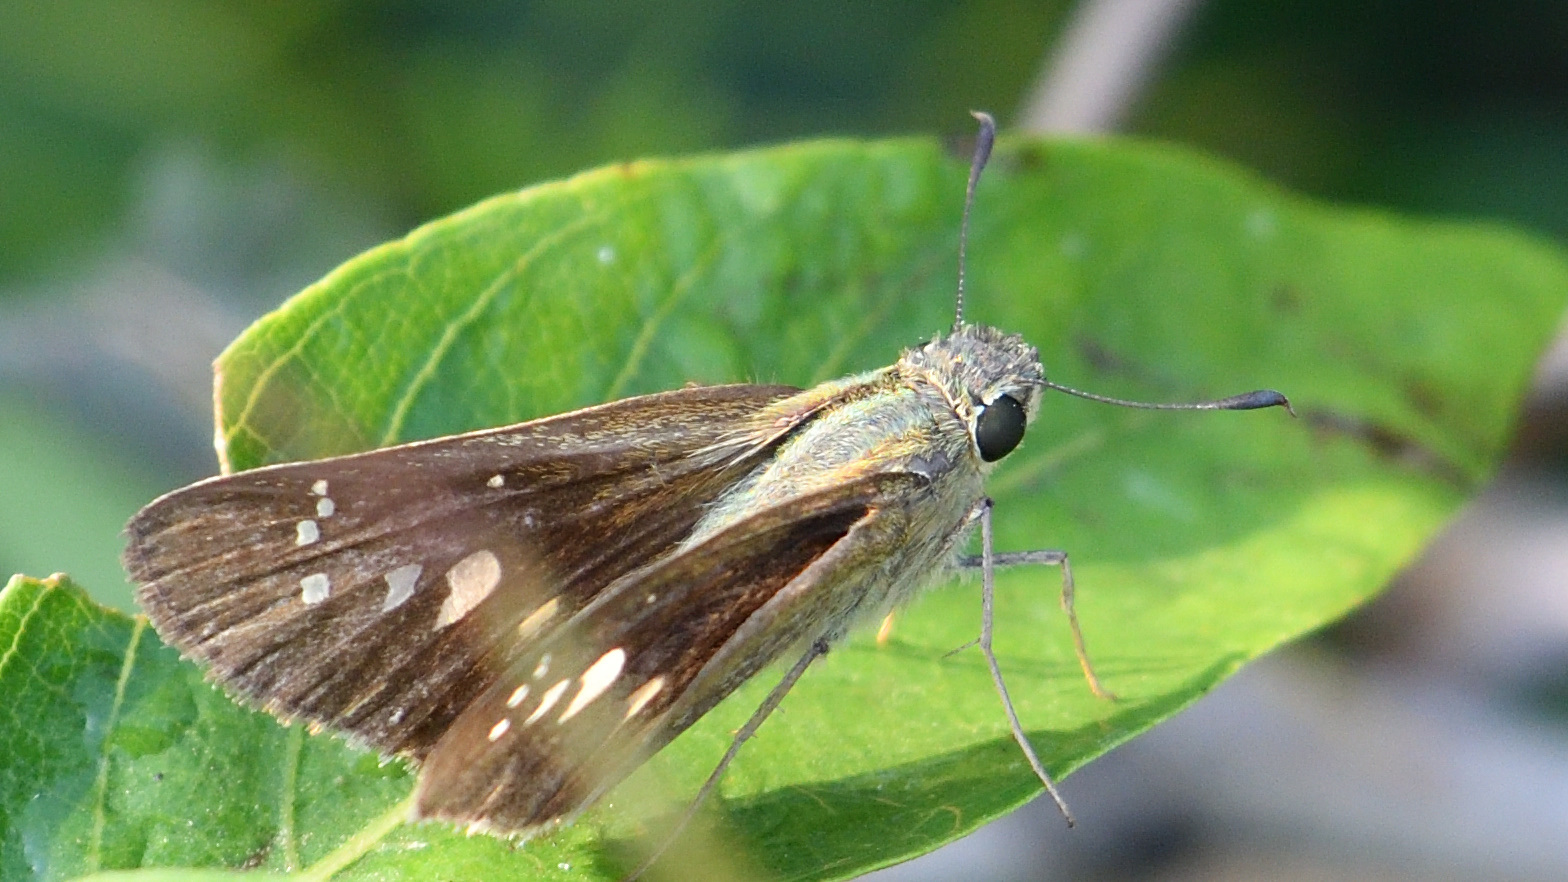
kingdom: Animalia
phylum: Arthropoda
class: Insecta
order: Lepidoptera
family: Hesperiidae
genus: Borbo
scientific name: Borbo cinnara
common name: Formosan swift
